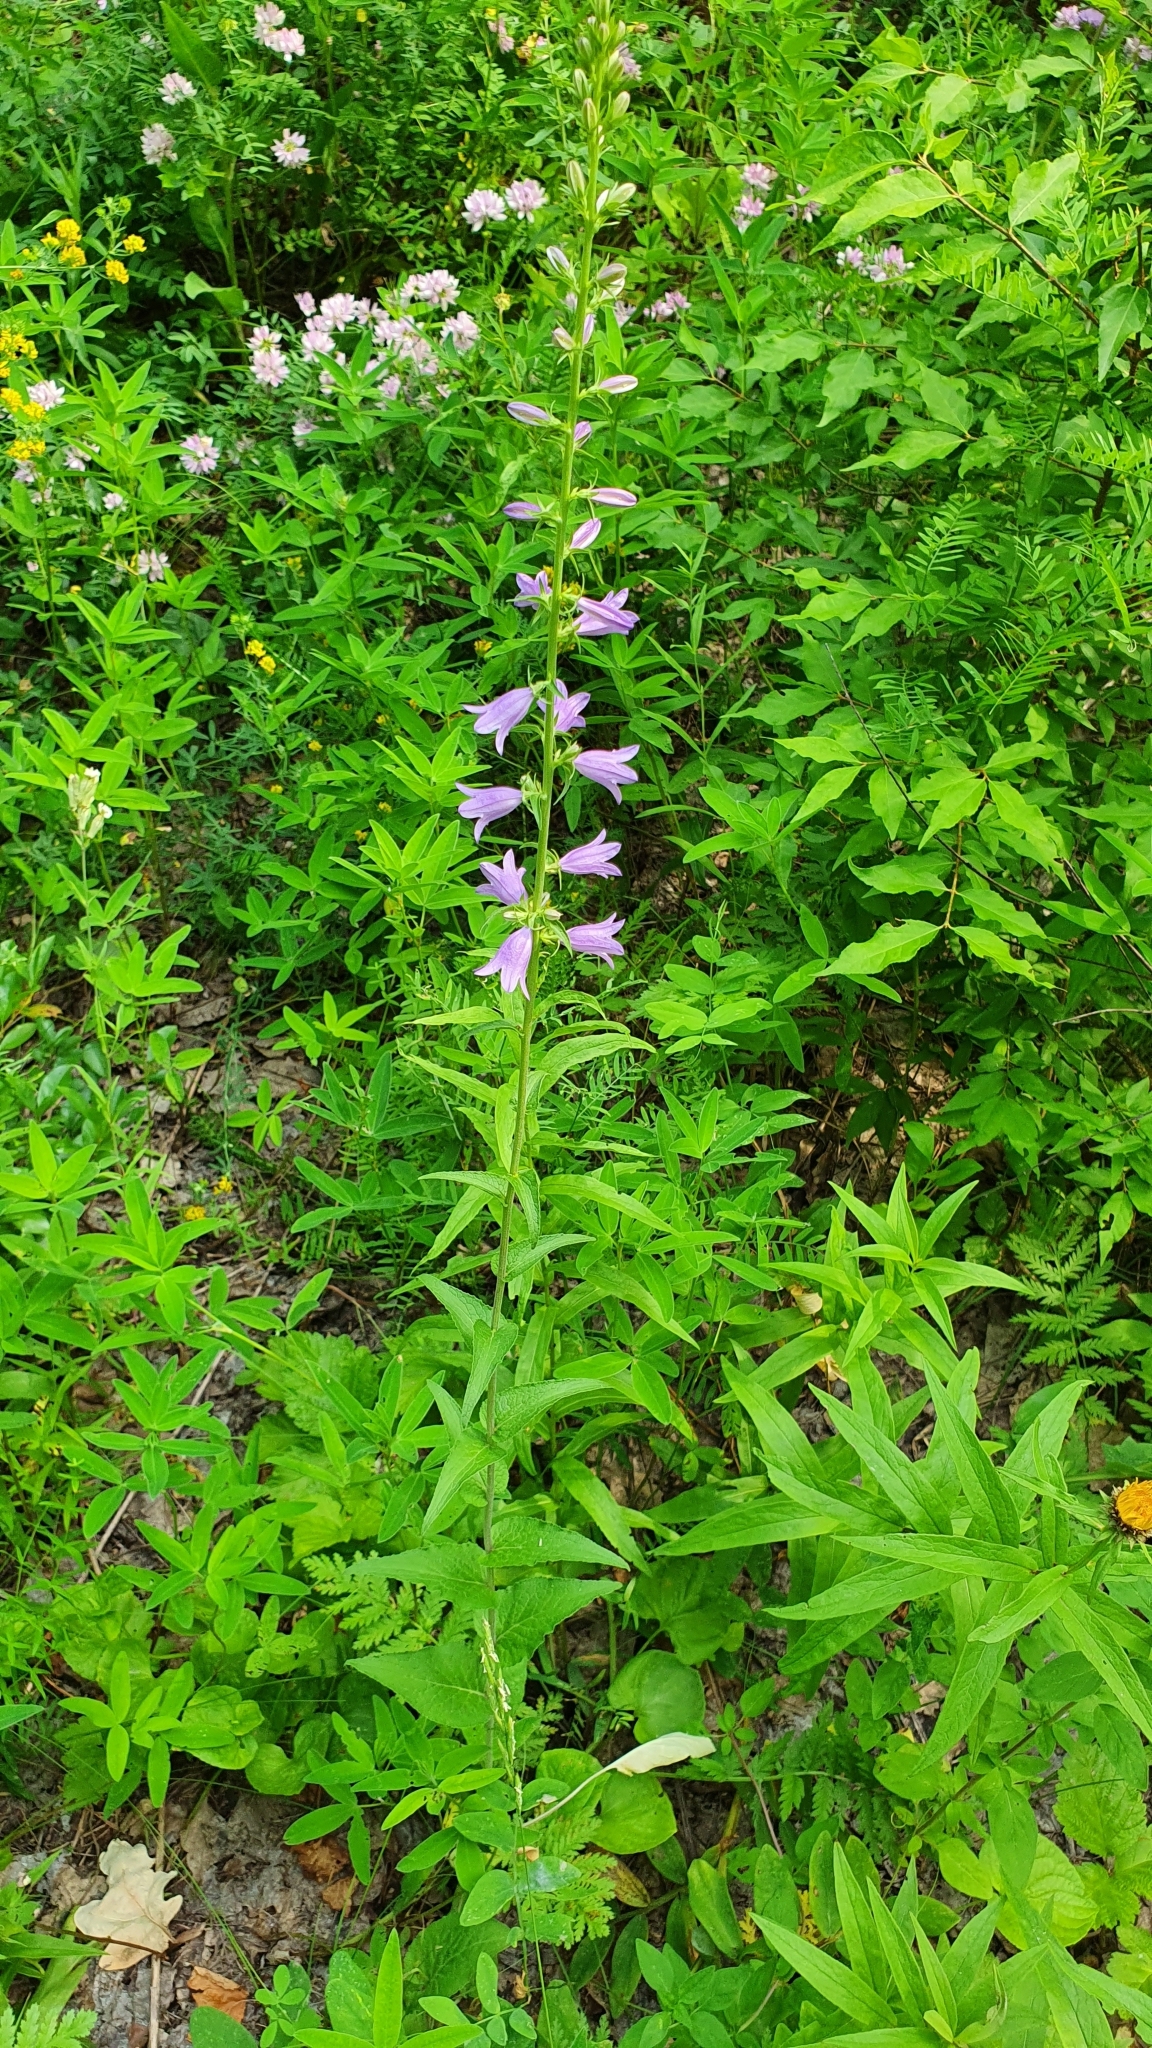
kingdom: Plantae
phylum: Tracheophyta
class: Magnoliopsida
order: Asterales
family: Campanulaceae
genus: Campanula
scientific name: Campanula bononiensis
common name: Pale bellflower
